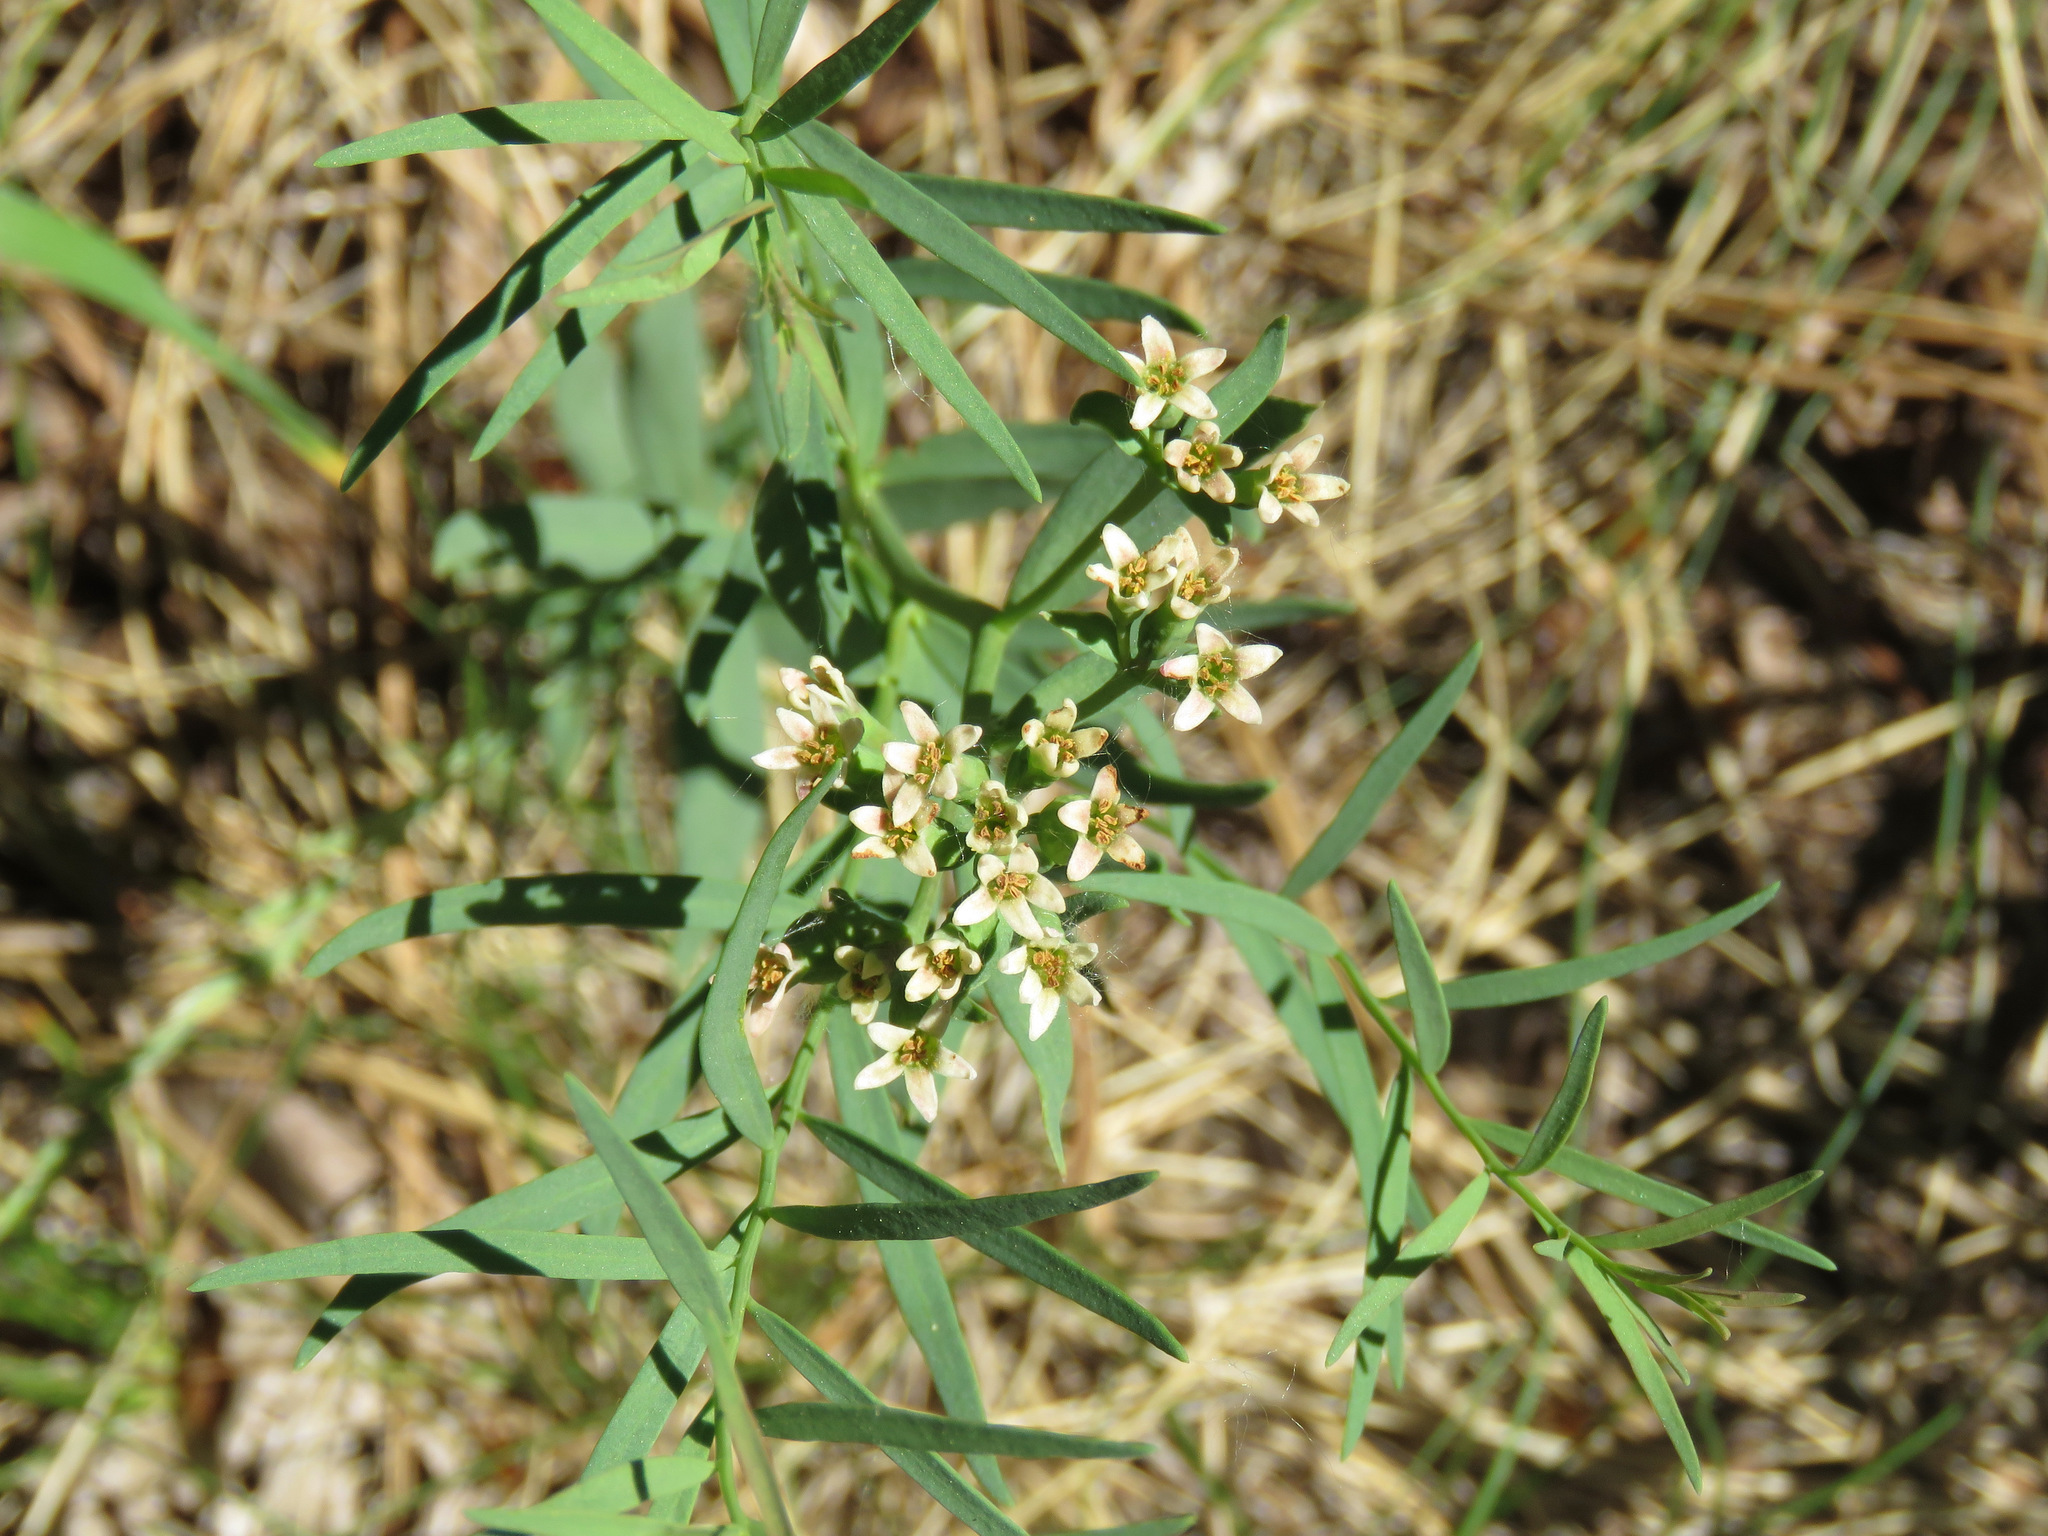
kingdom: Plantae
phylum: Tracheophyta
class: Magnoliopsida
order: Santalales
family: Comandraceae
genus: Comandra
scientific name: Comandra umbellata
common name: Bastard toadflax
